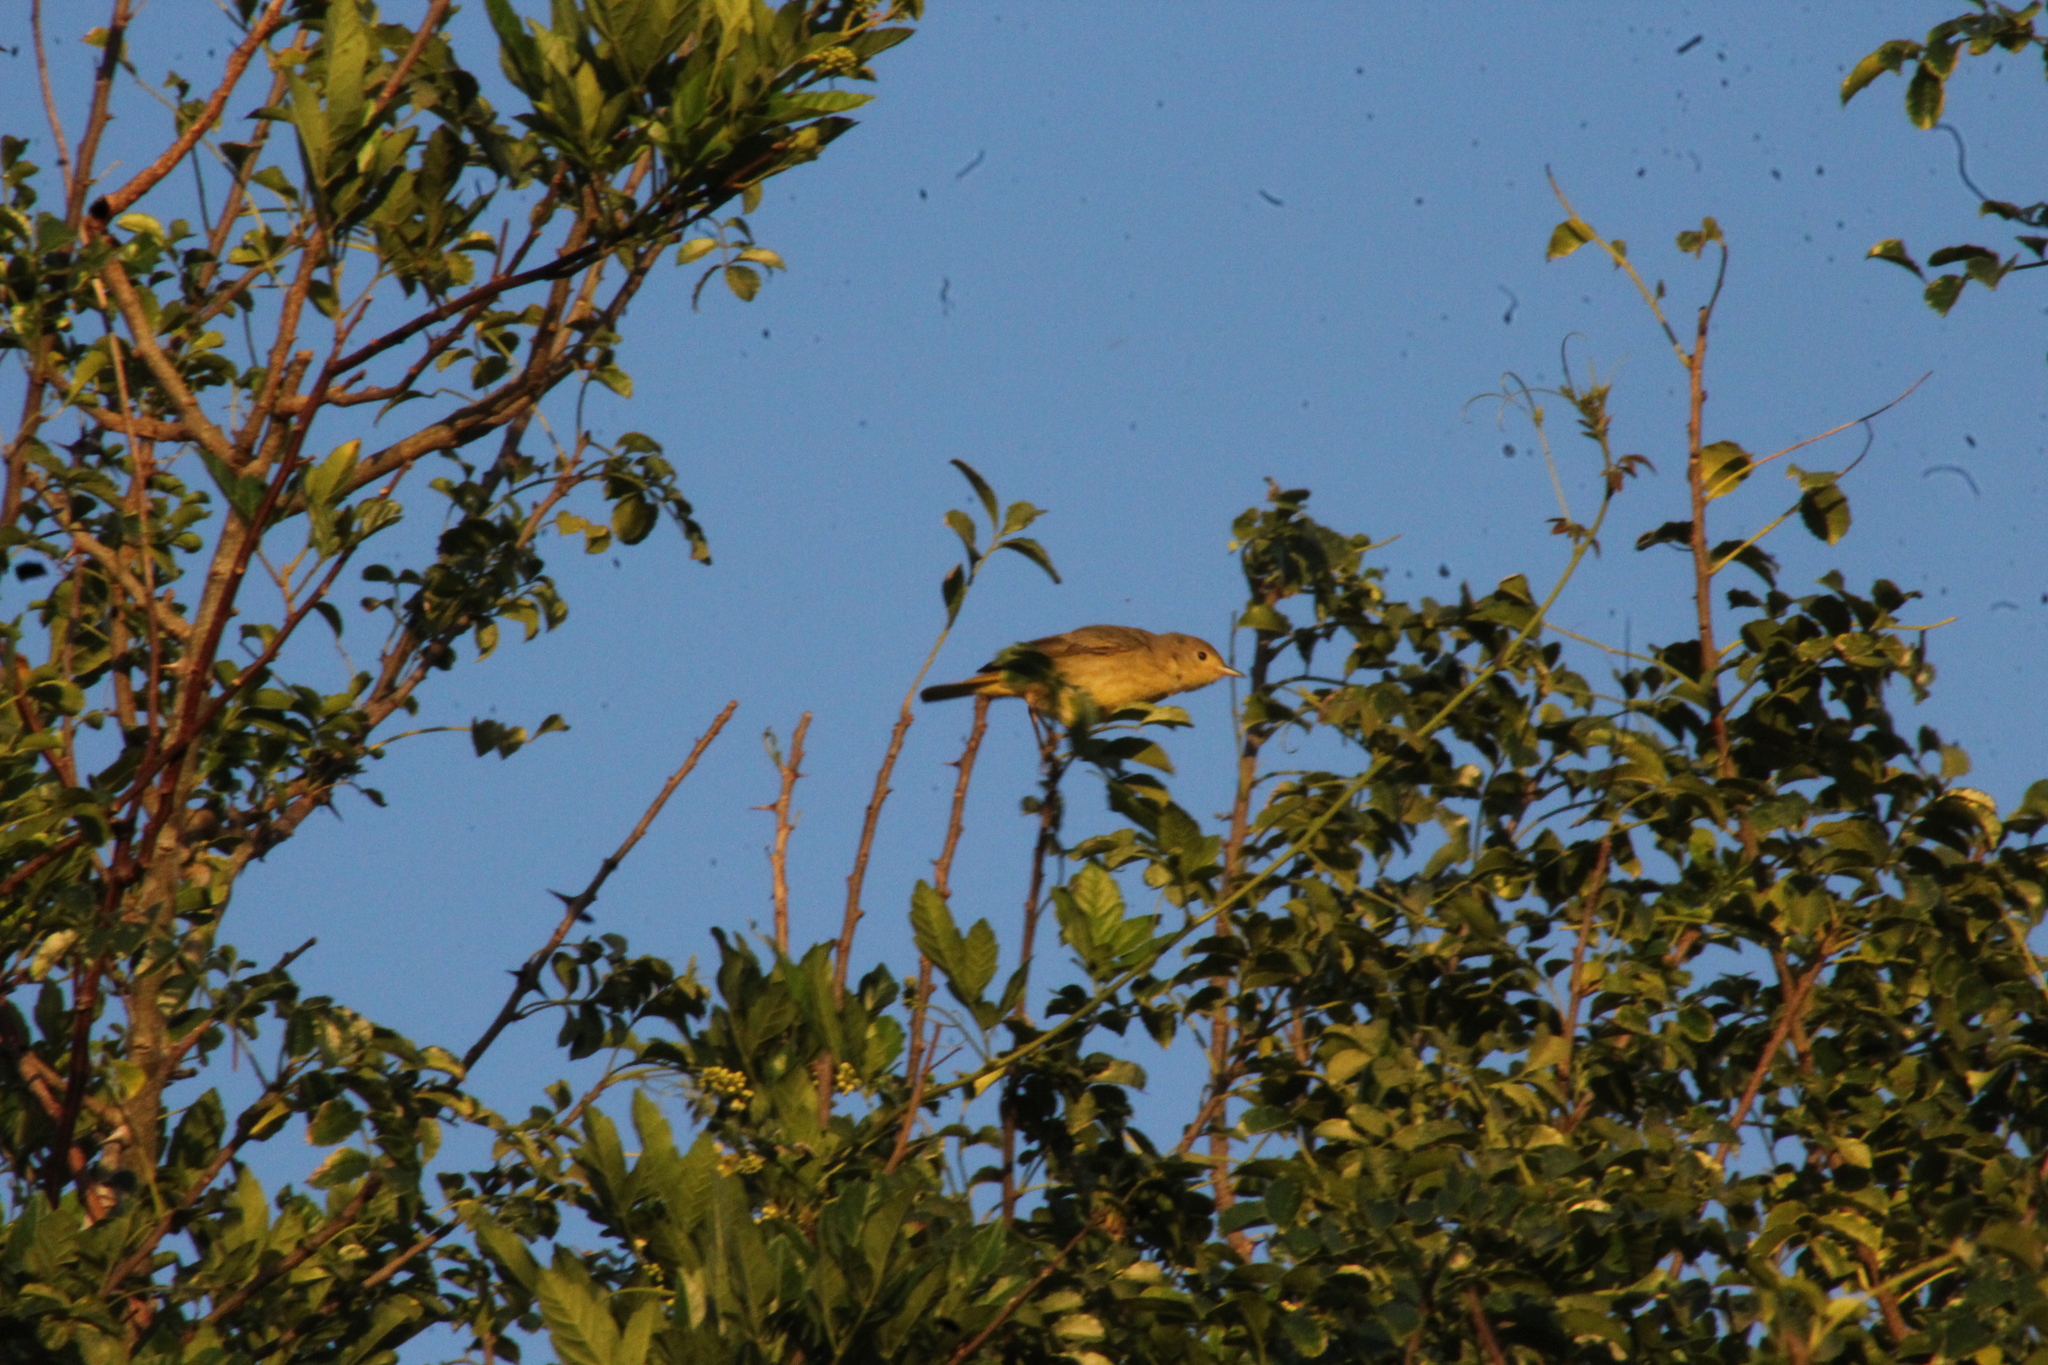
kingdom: Animalia
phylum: Chordata
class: Aves
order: Passeriformes
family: Parulidae
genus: Setophaga
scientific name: Setophaga petechia
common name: Yellow warbler
